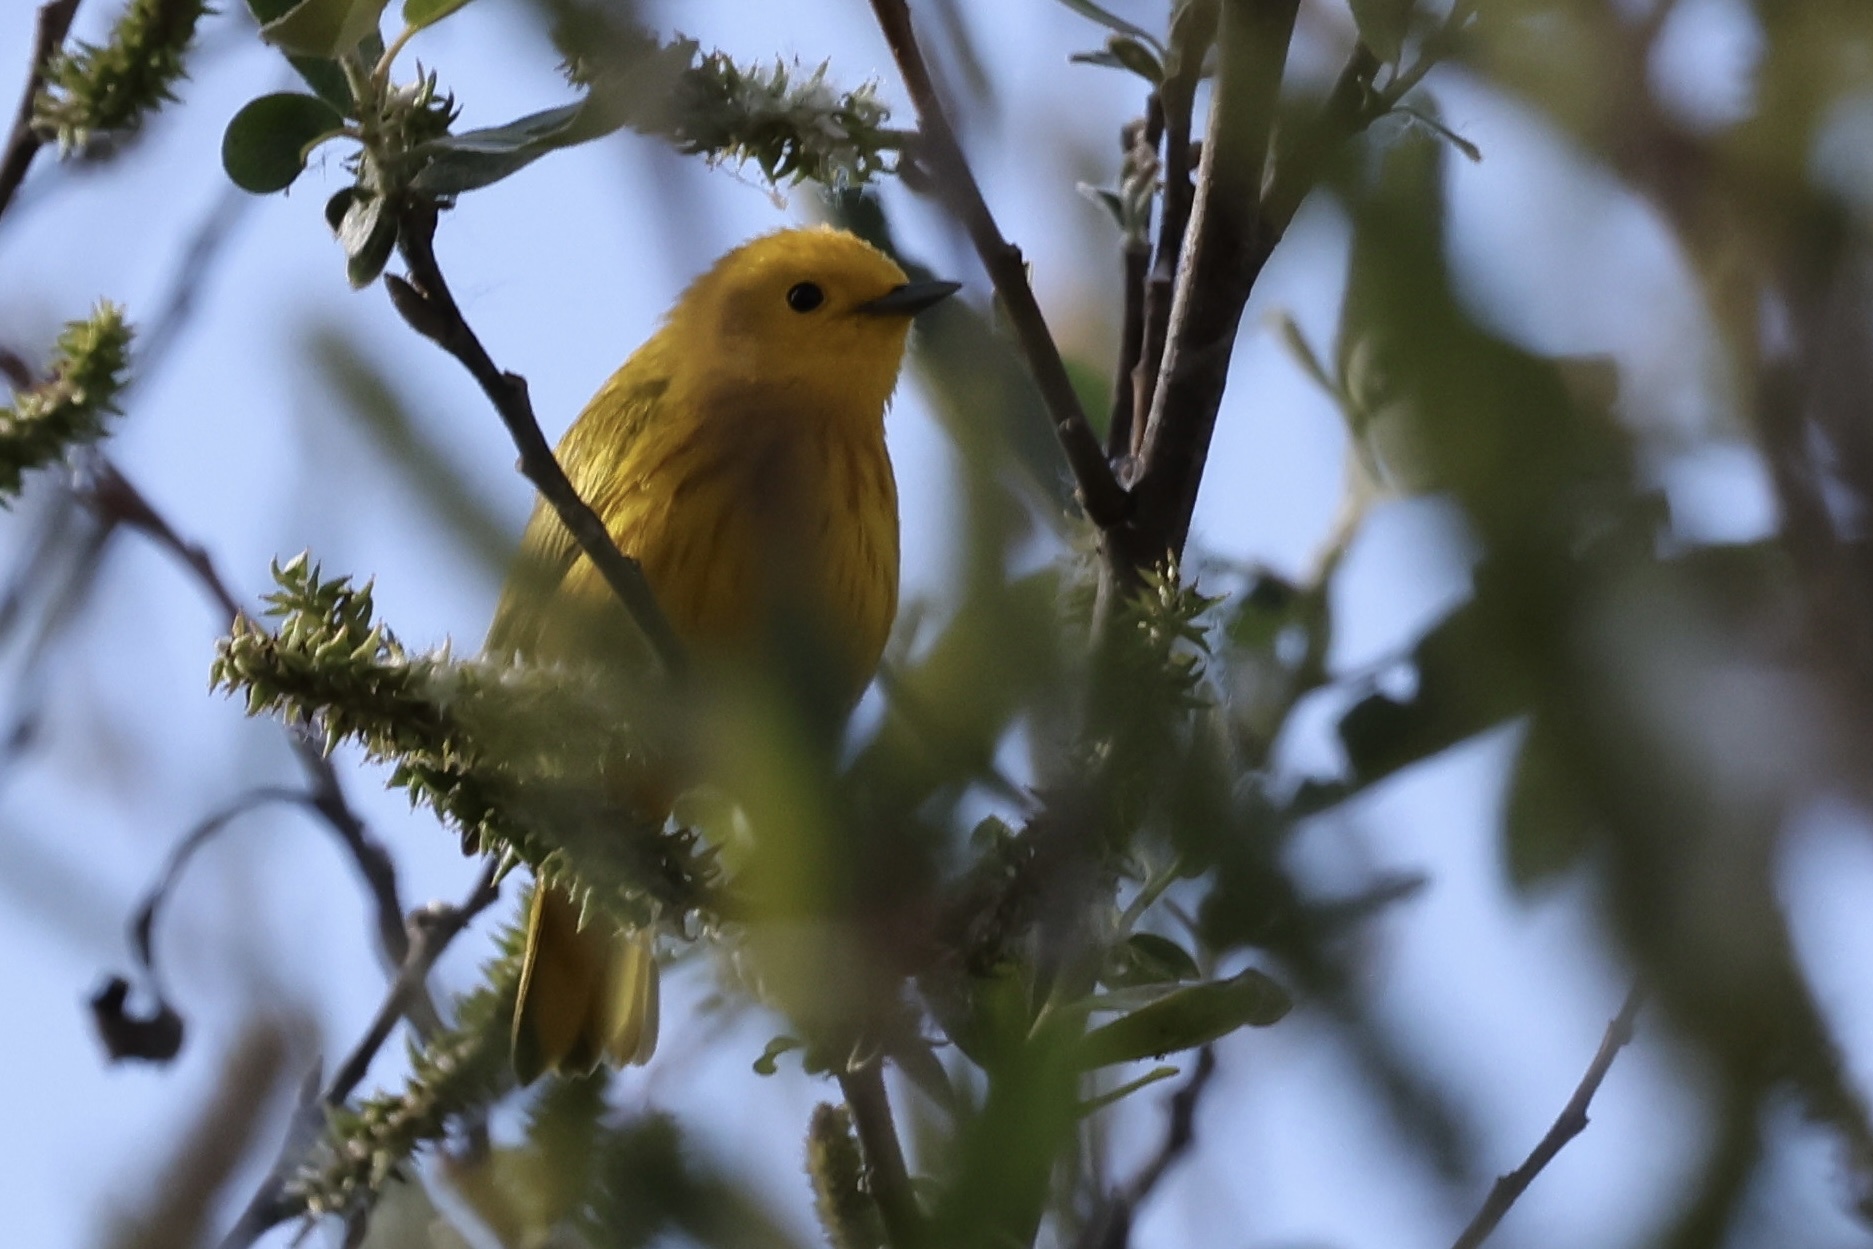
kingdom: Animalia
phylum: Chordata
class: Aves
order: Passeriformes
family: Parulidae
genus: Setophaga
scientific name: Setophaga petechia
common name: Yellow warbler
